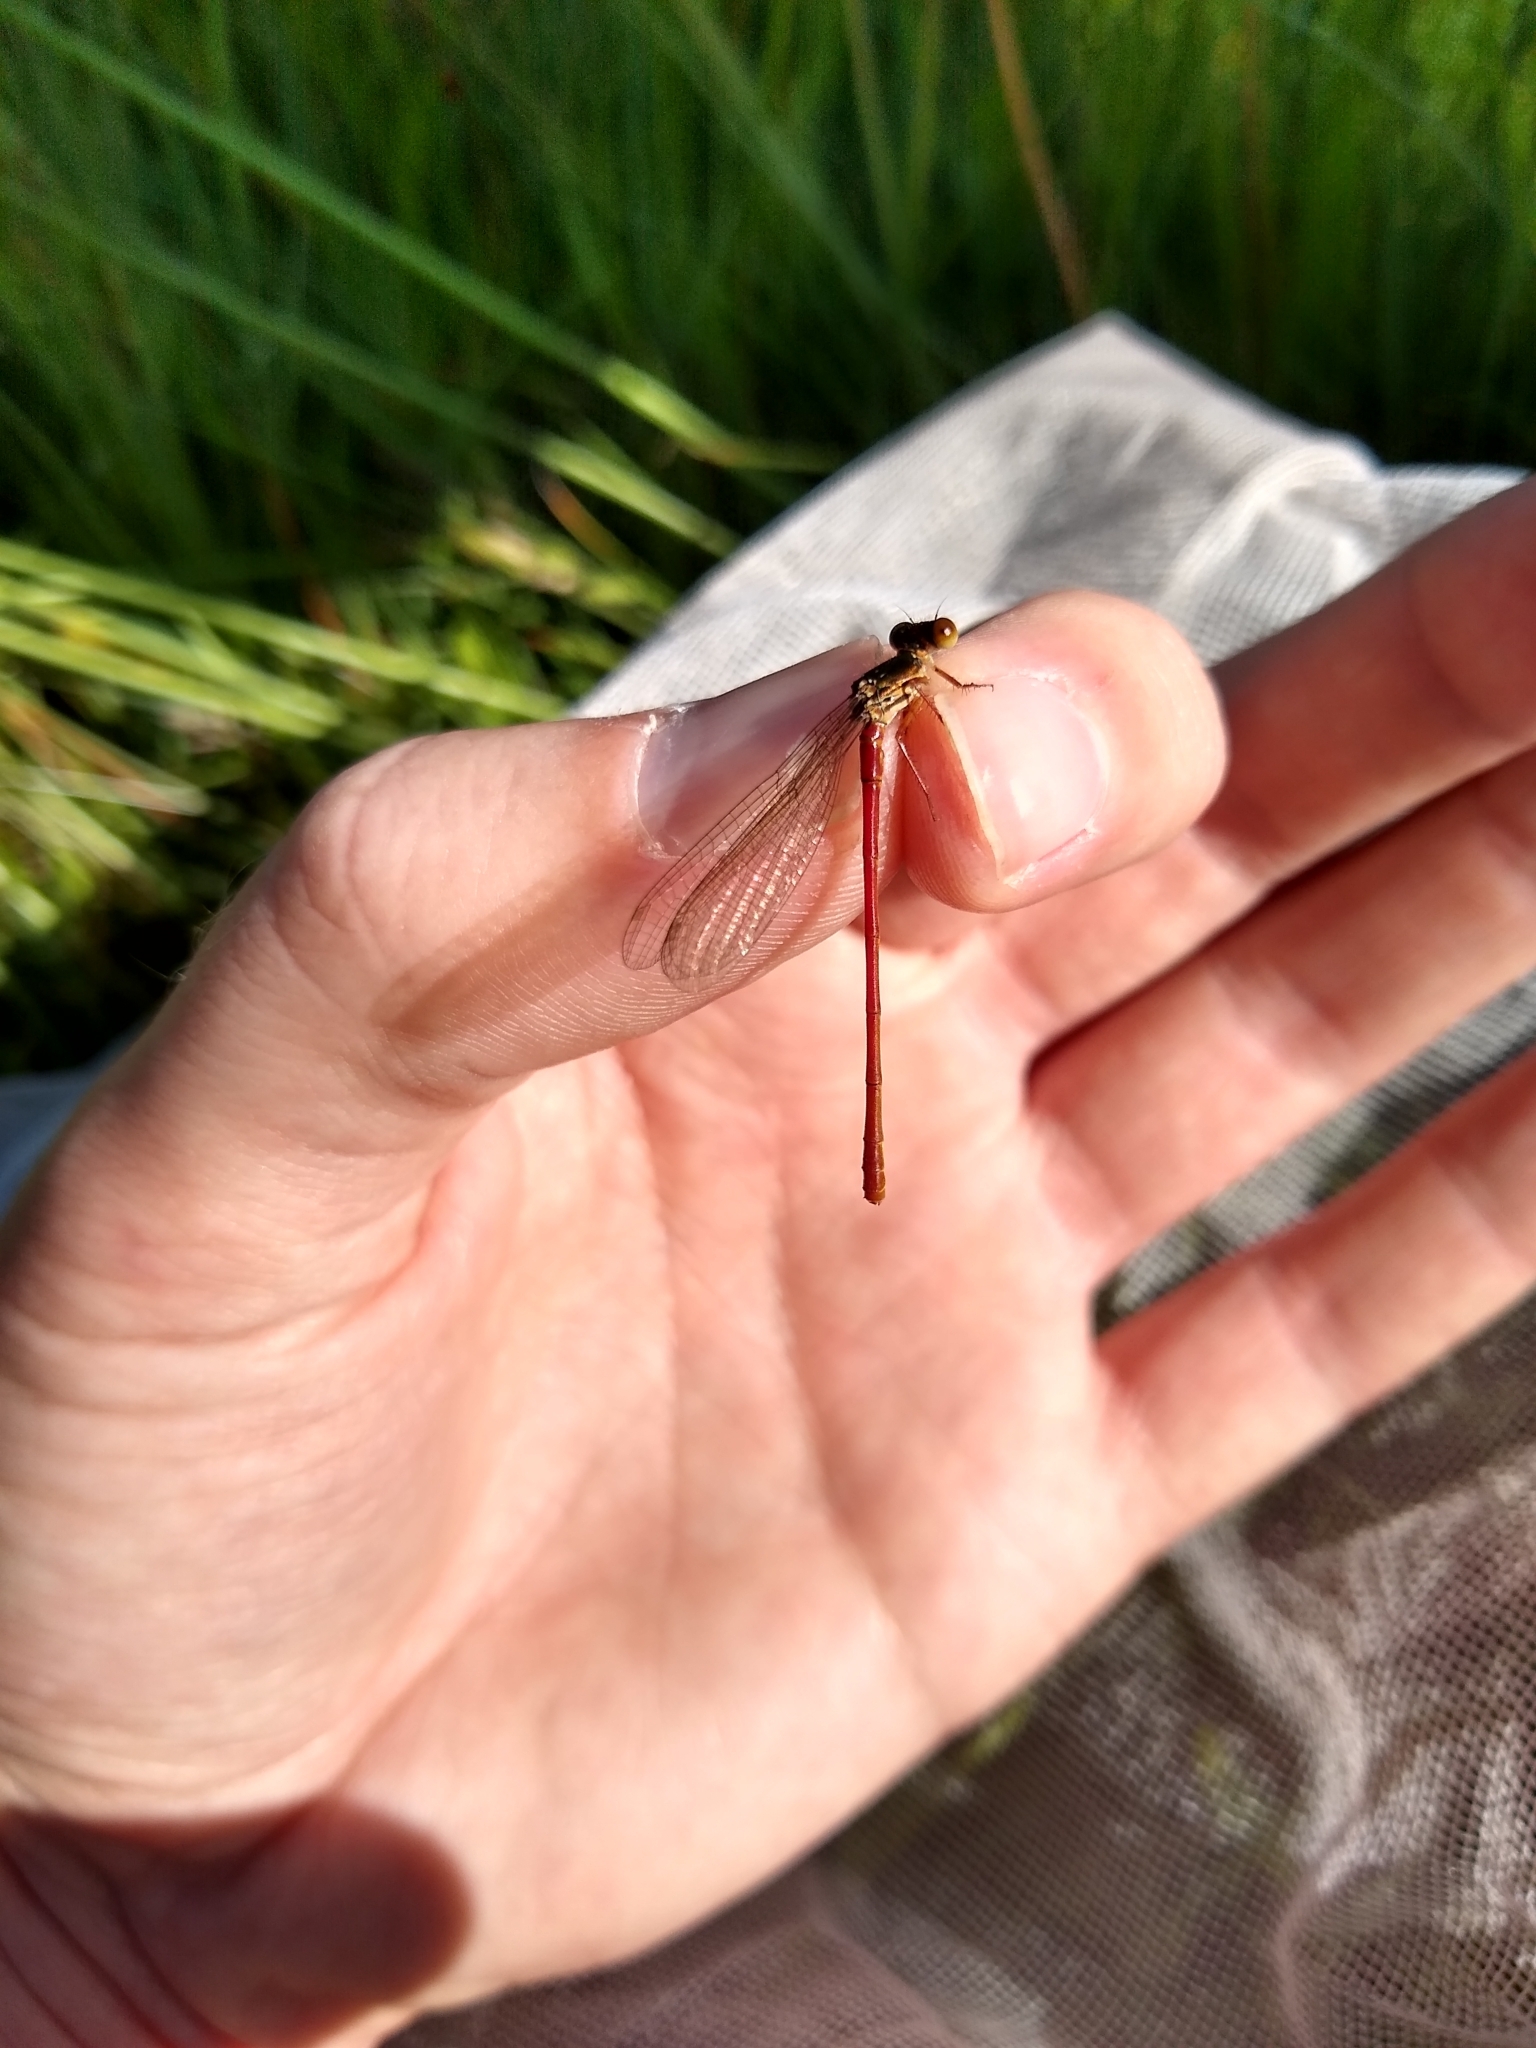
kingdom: Animalia
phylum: Arthropoda
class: Insecta
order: Odonata
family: Coenagrionidae
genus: Ceriagrion
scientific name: Ceriagrion tenellum
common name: Small red damselfly
